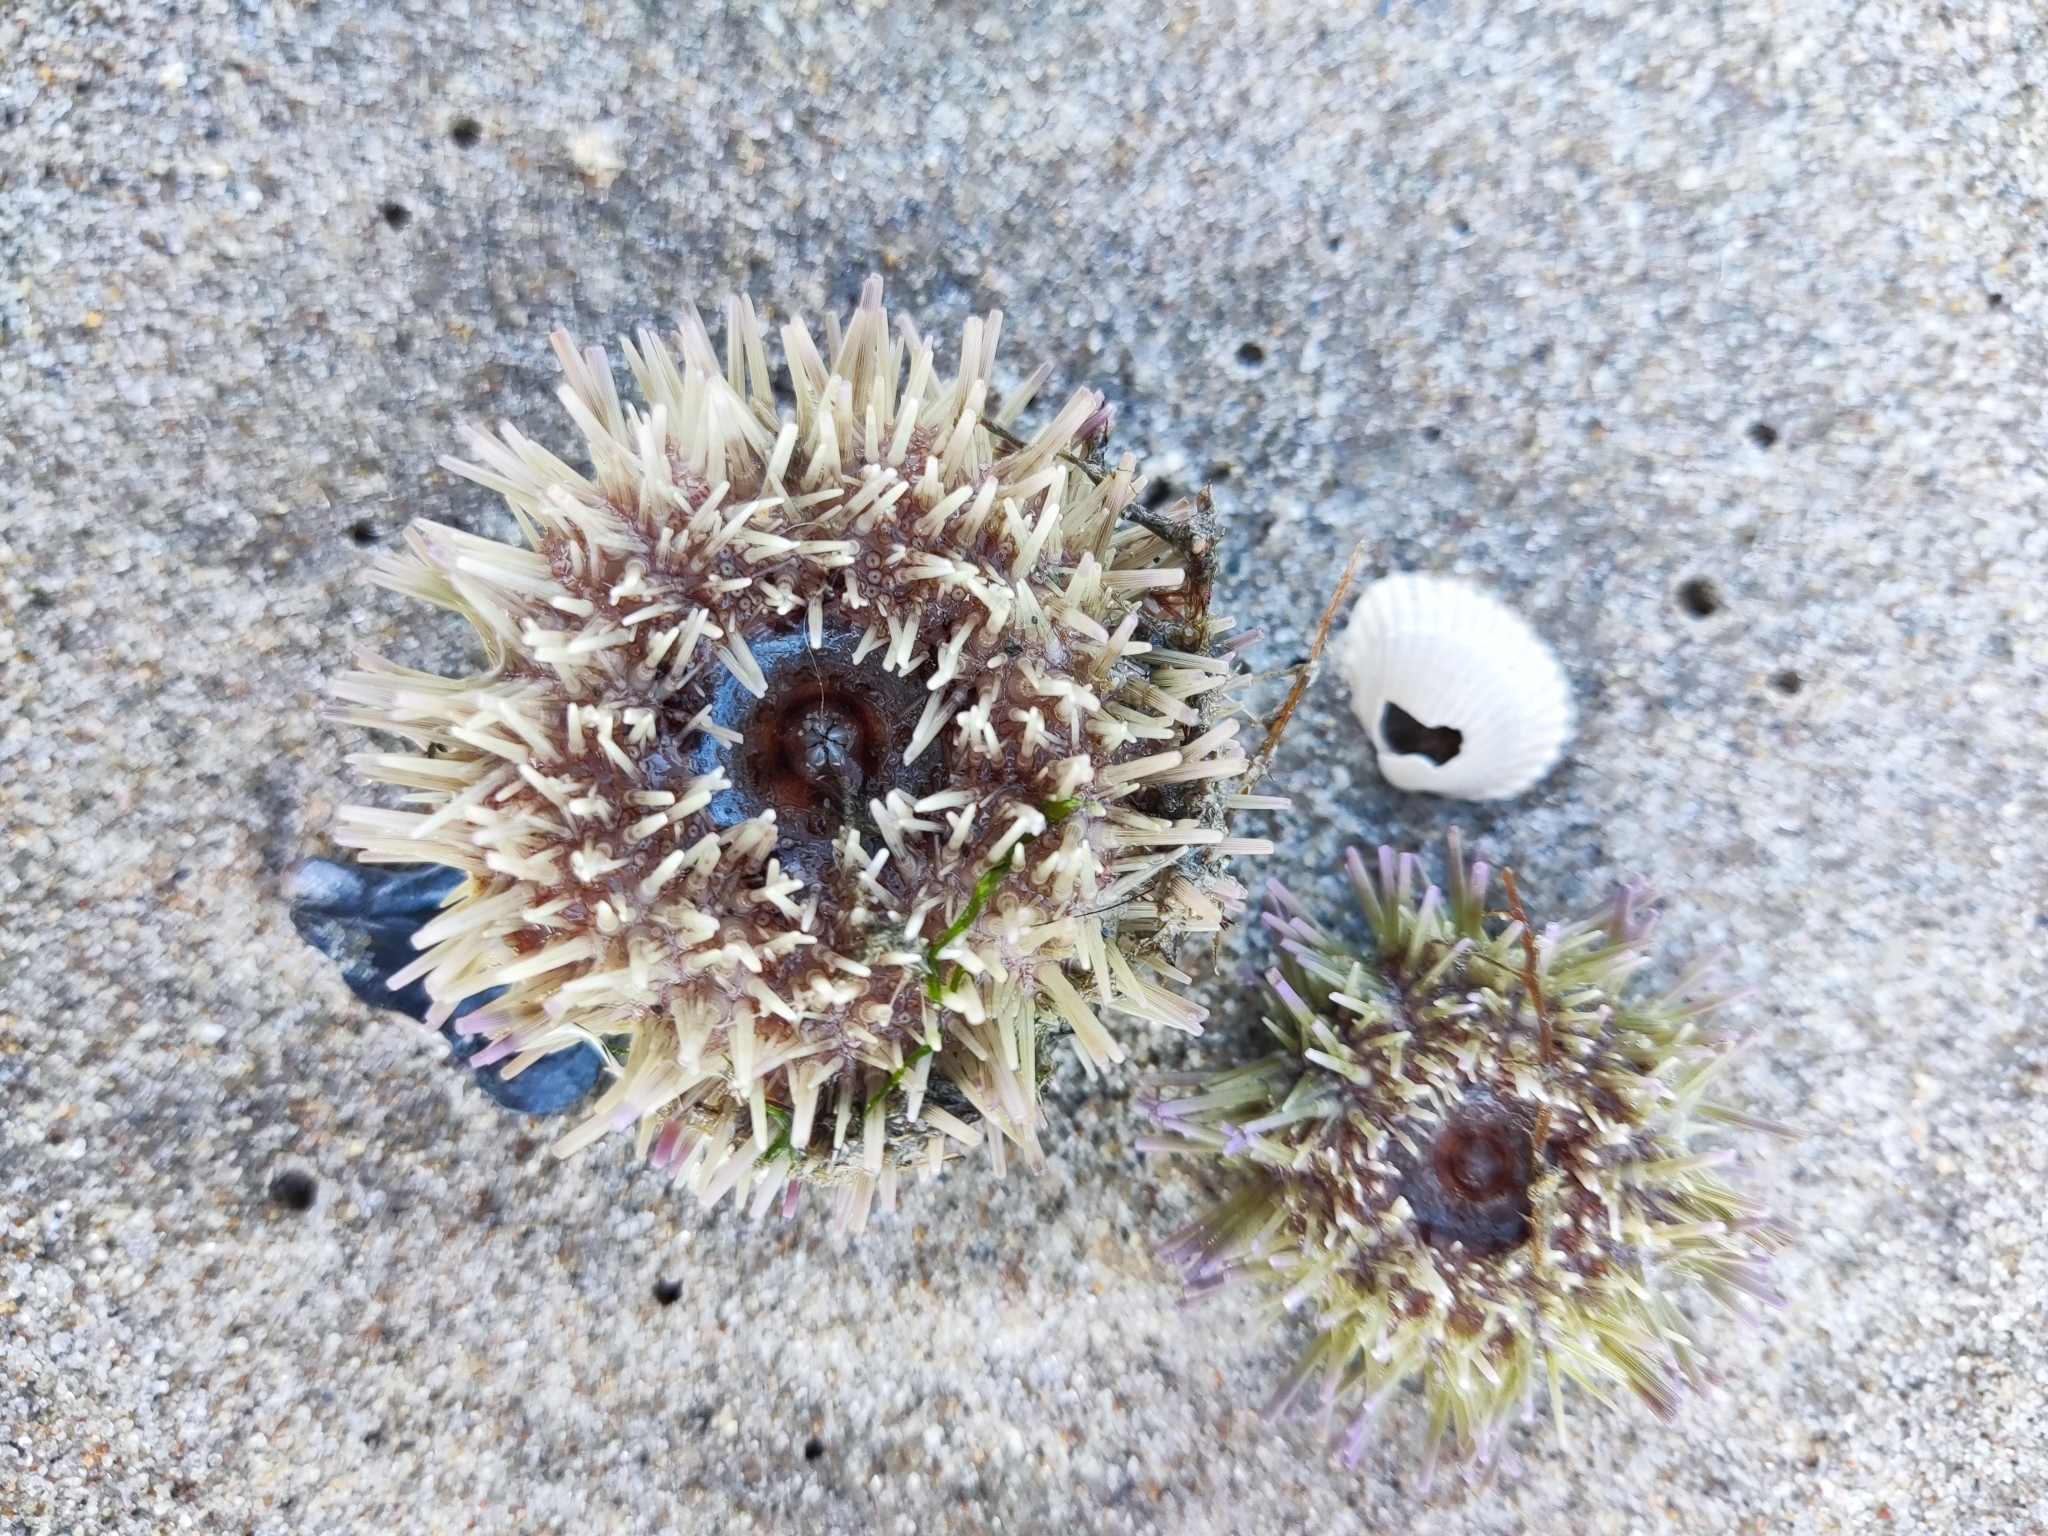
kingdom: Animalia
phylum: Echinodermata
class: Echinoidea
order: Camarodonta
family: Parechinidae
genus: Psammechinus
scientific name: Psammechinus miliaris
